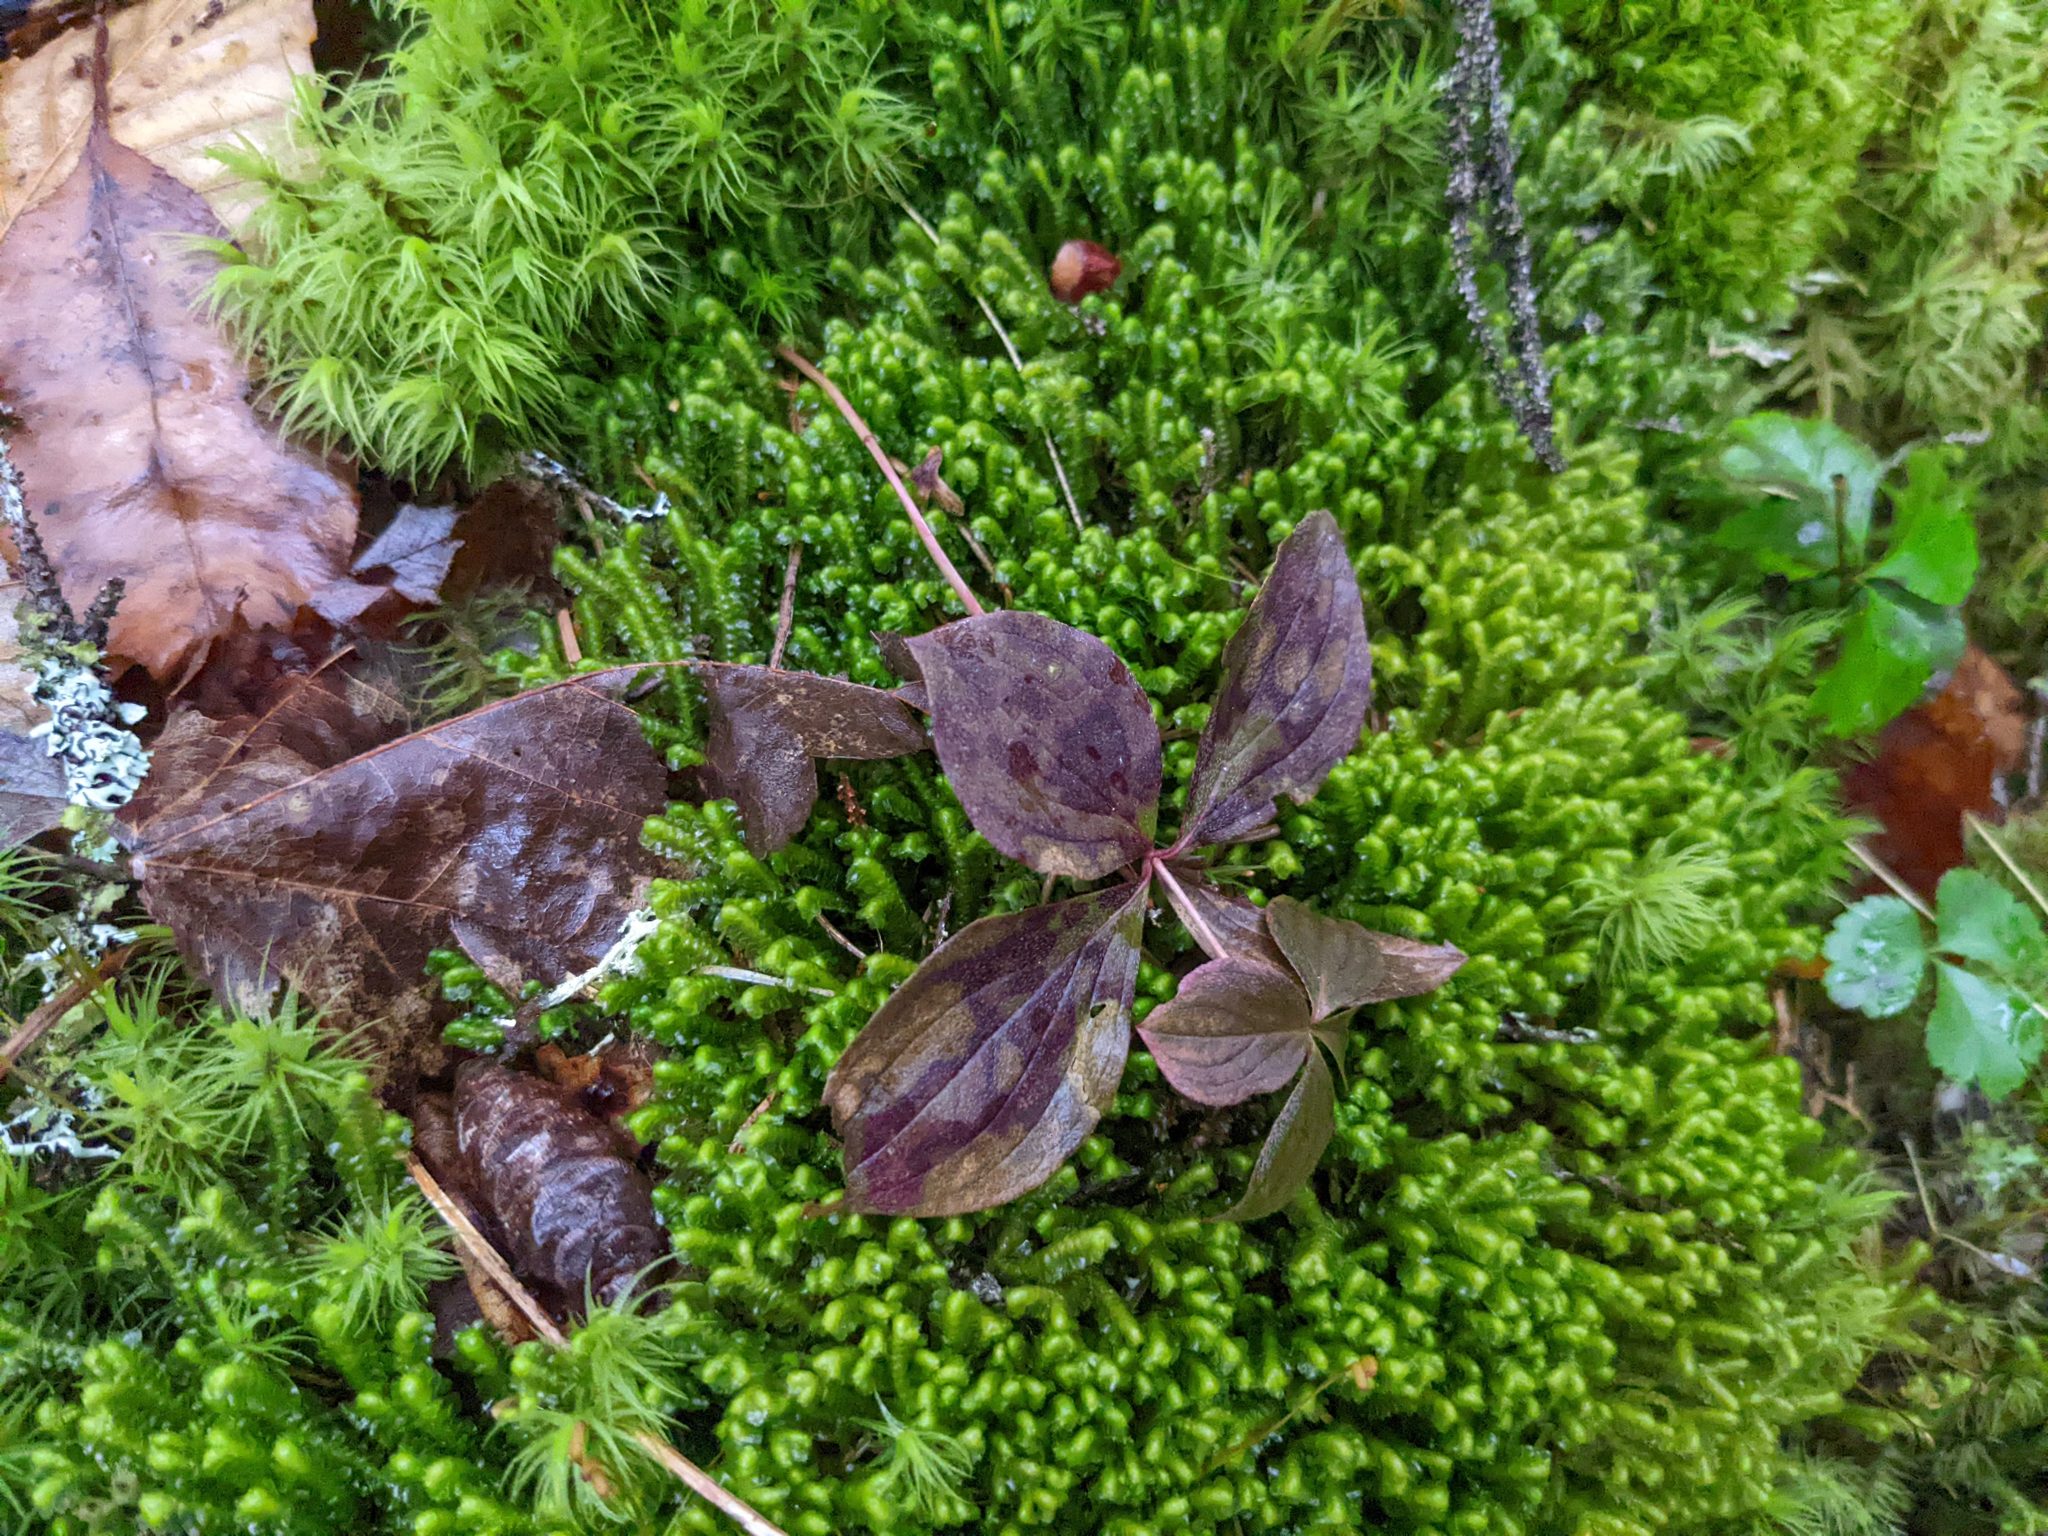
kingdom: Plantae
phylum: Tracheophyta
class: Magnoliopsida
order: Cornales
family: Cornaceae
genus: Cornus
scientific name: Cornus canadensis
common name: Creeping dogwood
